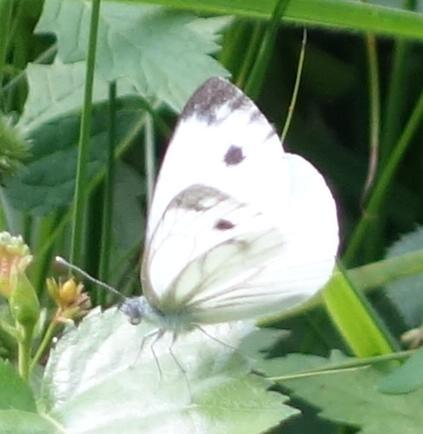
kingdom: Animalia
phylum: Arthropoda
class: Insecta
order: Lepidoptera
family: Pieridae
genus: Pieris
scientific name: Pieris napi
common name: Green-veined white
